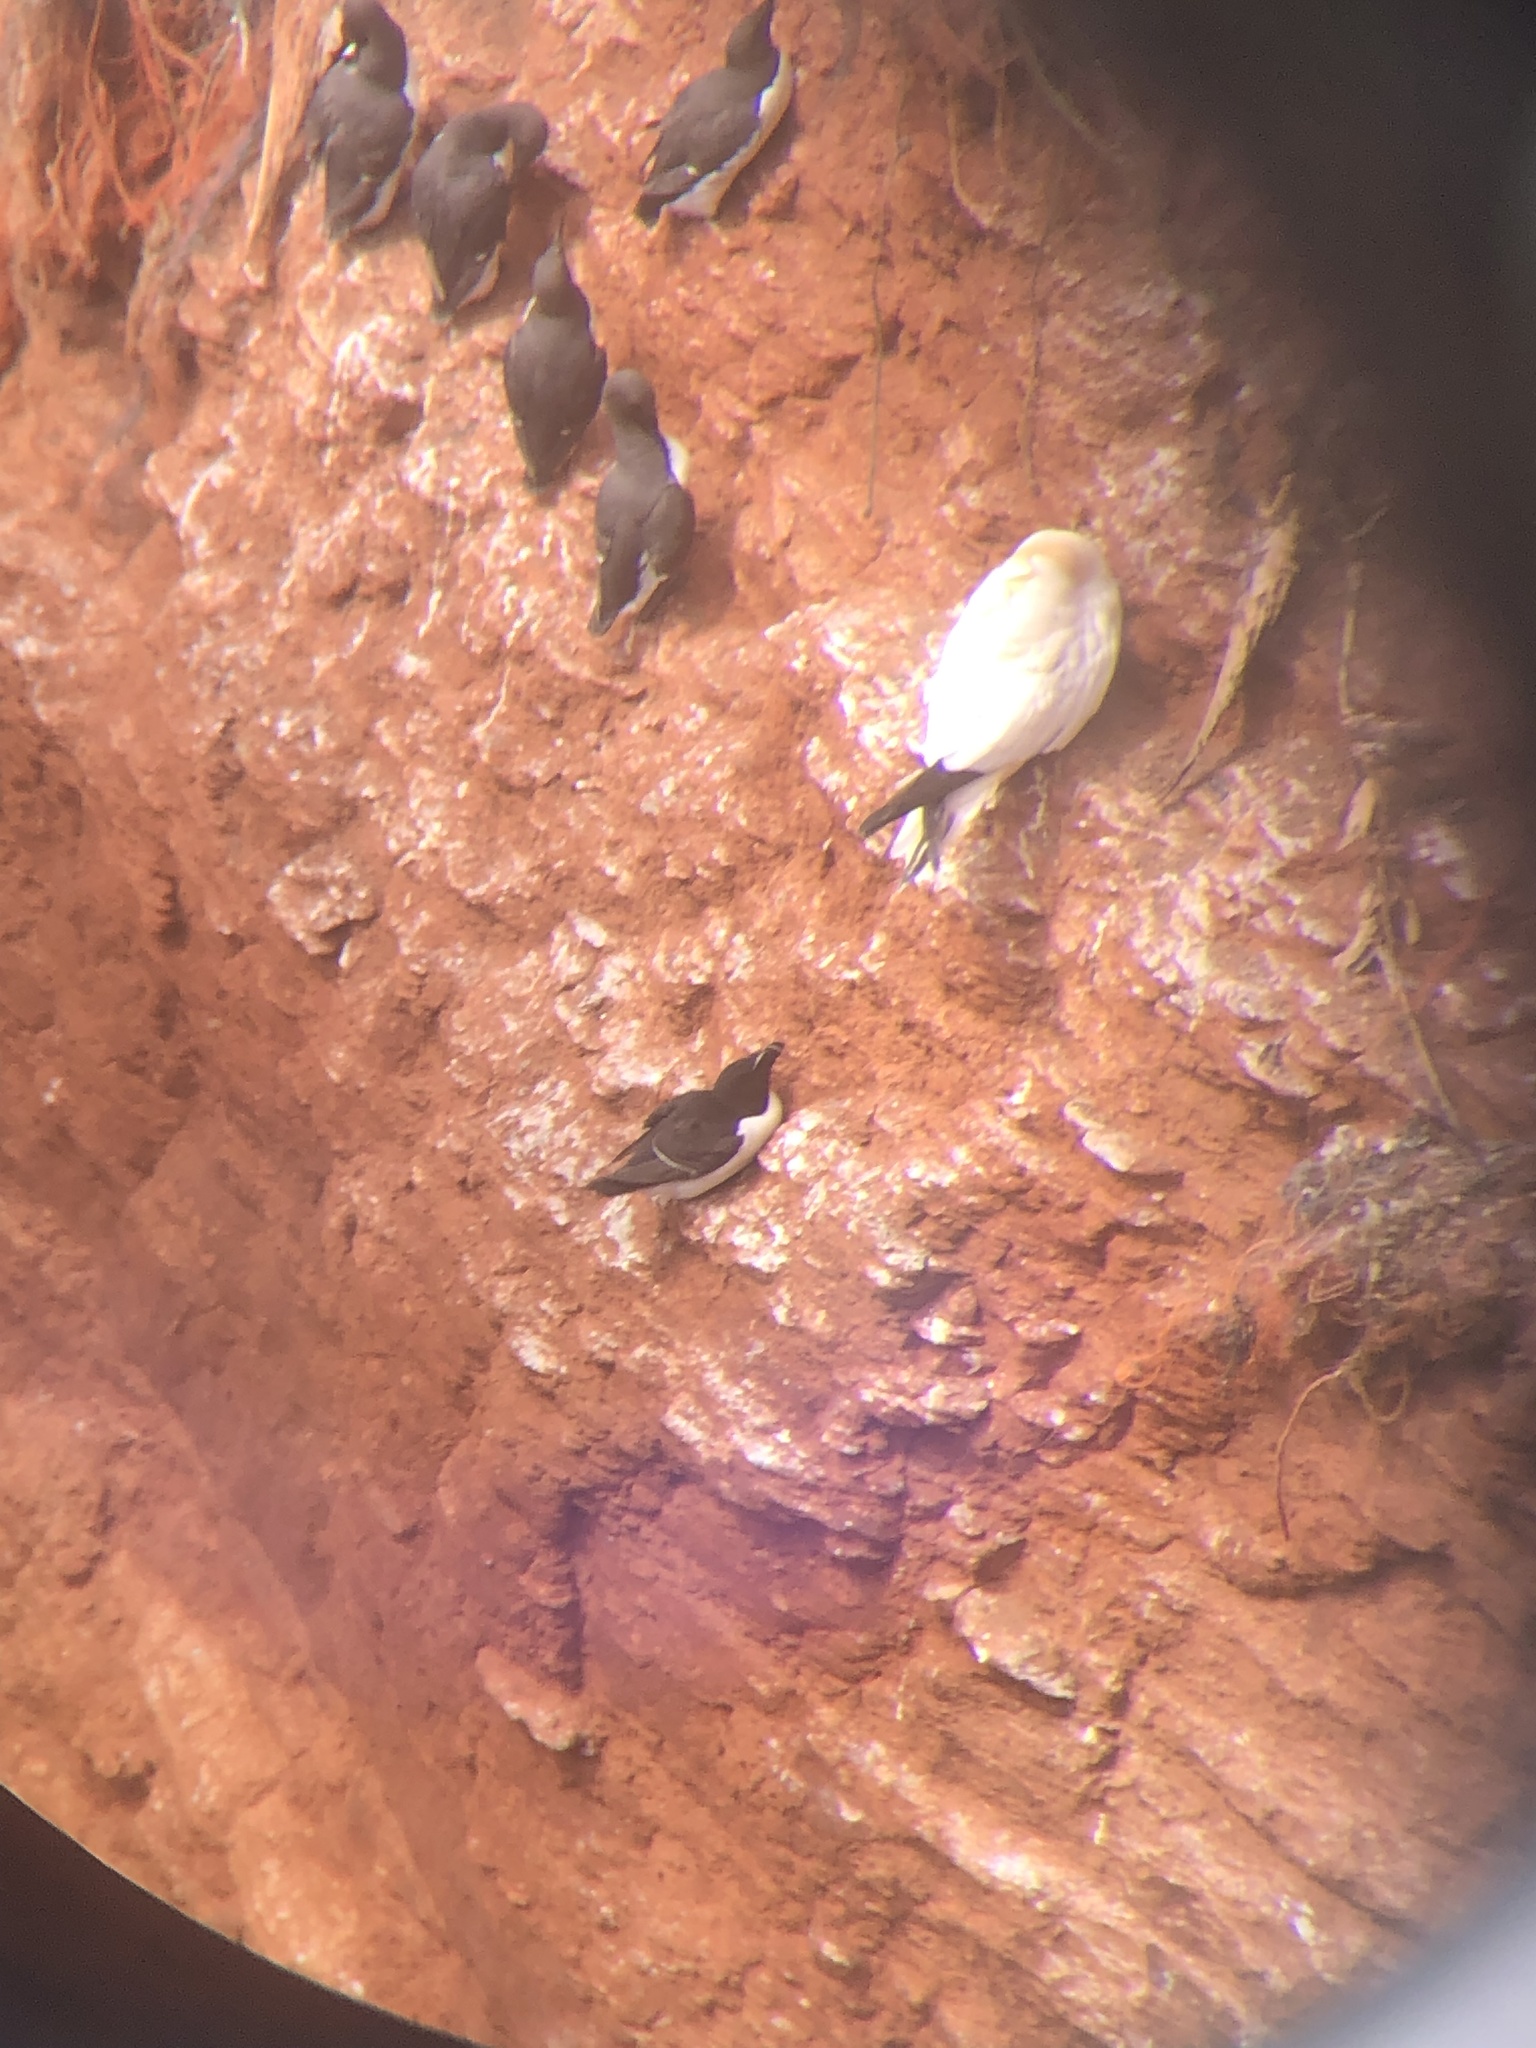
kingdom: Animalia
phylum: Chordata
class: Aves
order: Charadriiformes
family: Alcidae
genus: Alca
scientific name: Alca torda
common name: Razorbill
